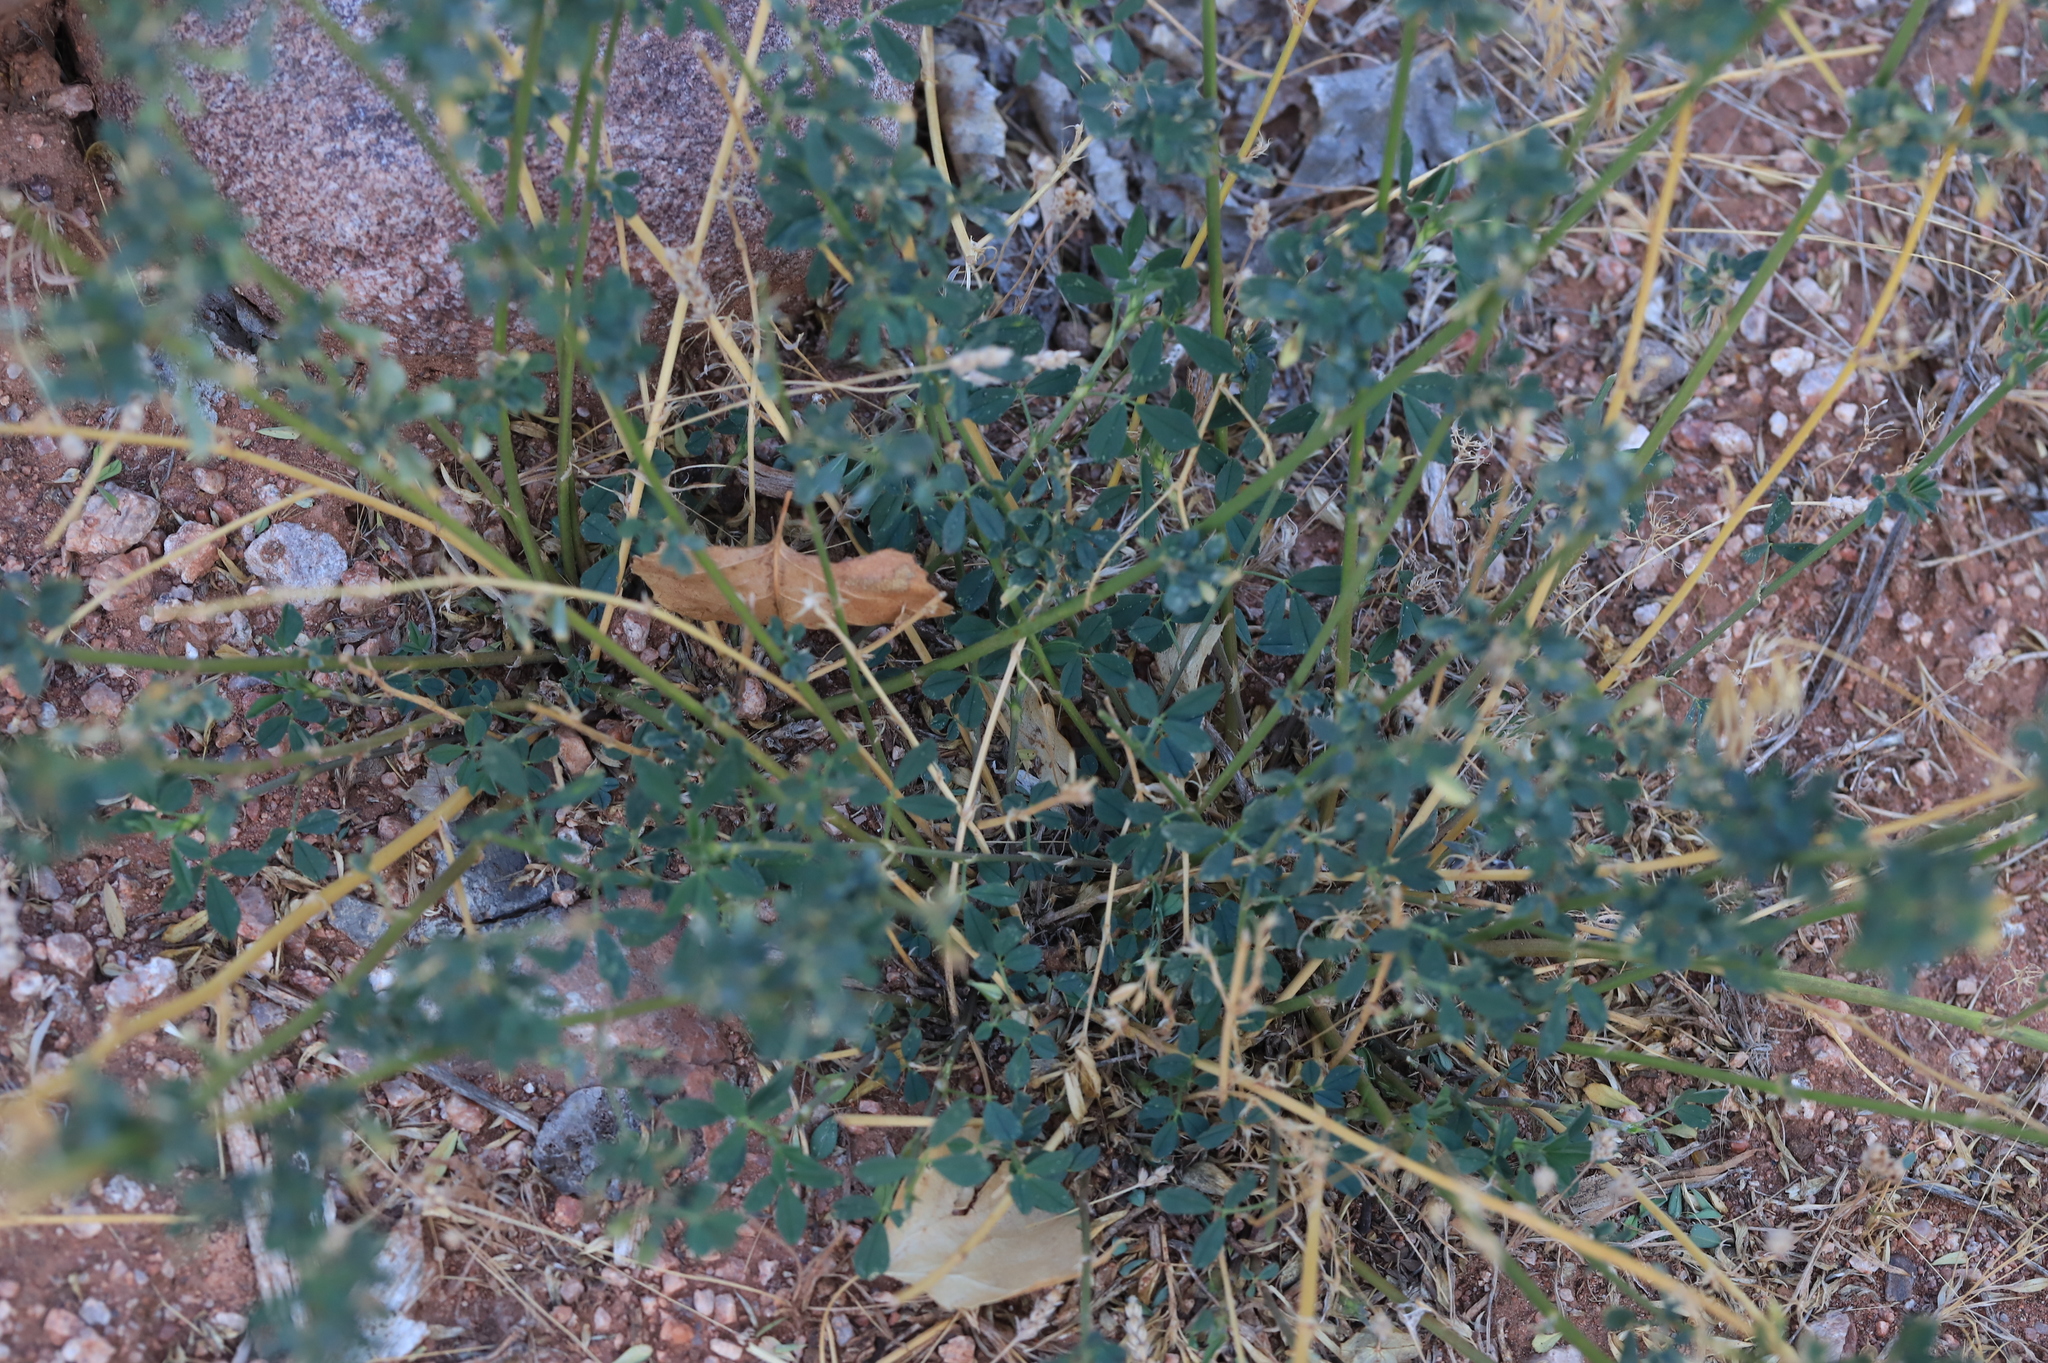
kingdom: Plantae
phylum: Tracheophyta
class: Magnoliopsida
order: Fabales
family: Fabaceae
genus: Medicago
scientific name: Medicago sativa
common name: Alfalfa
